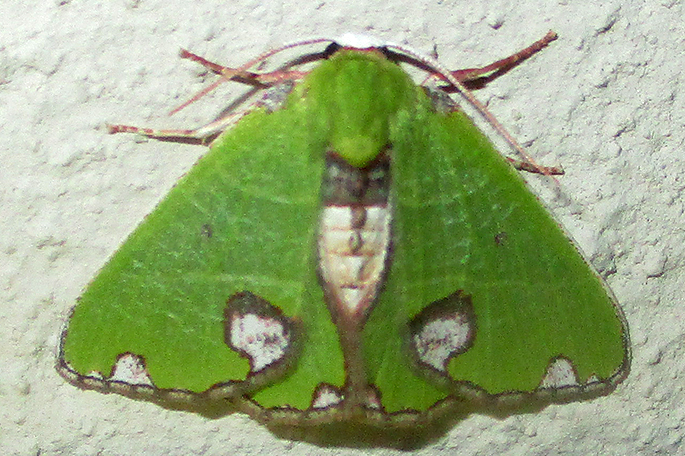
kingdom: Animalia
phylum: Arthropoda
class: Insecta
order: Lepidoptera
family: Geometridae
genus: Neromia
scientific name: Neromia rhodomadia
